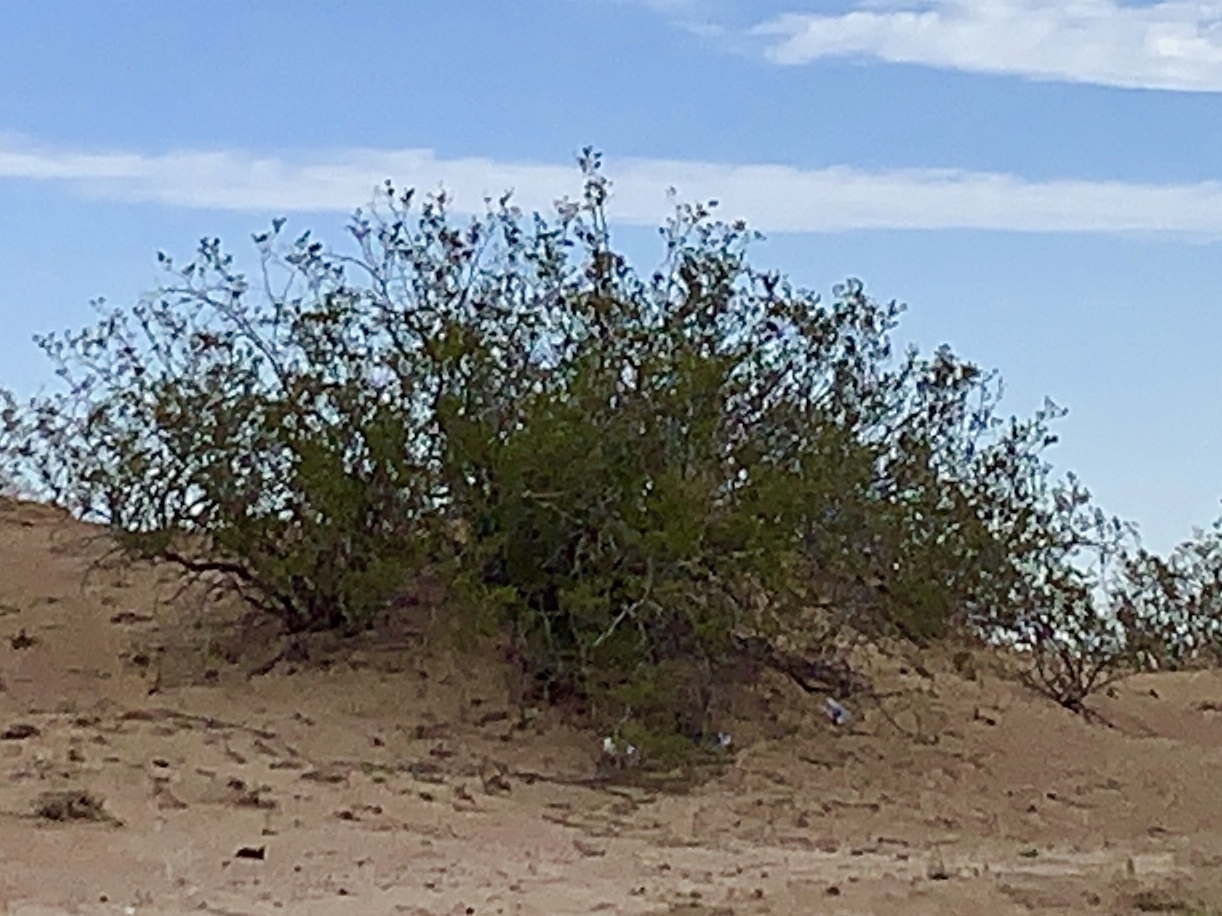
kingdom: Plantae
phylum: Tracheophyta
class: Magnoliopsida
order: Zygophyllales
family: Zygophyllaceae
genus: Larrea
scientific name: Larrea tridentata
